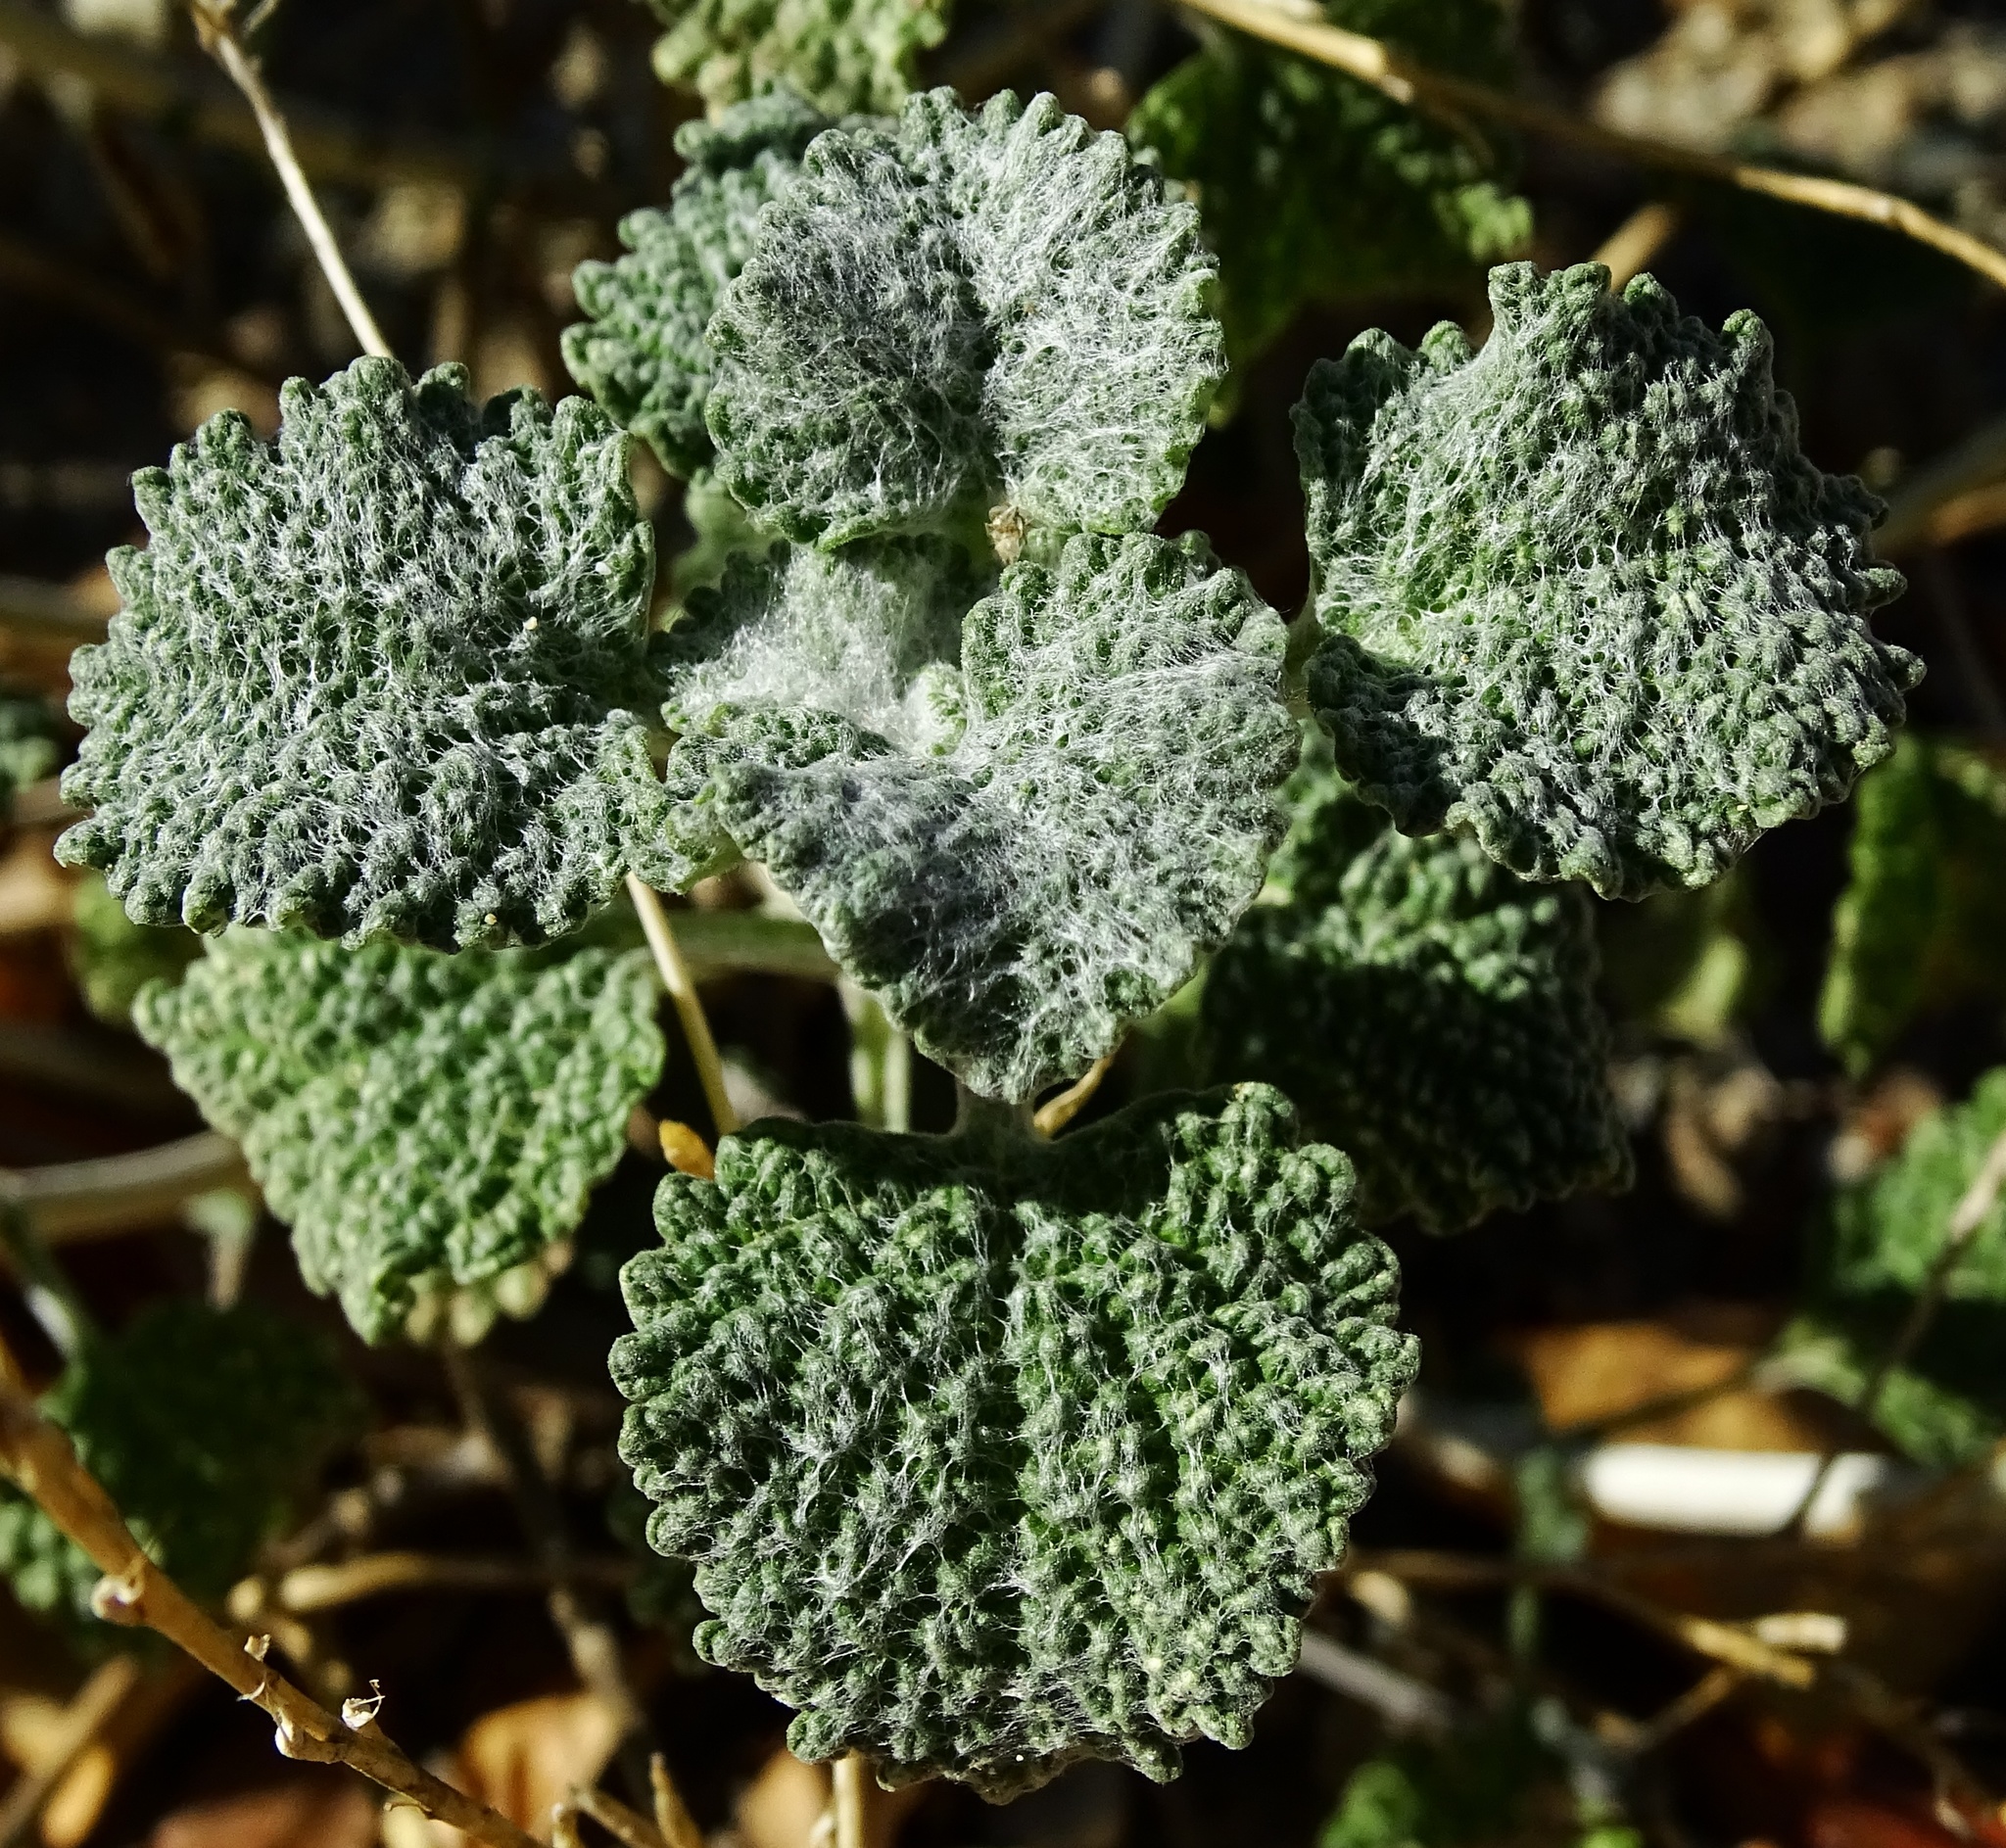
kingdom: Plantae
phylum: Tracheophyta
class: Magnoliopsida
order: Lamiales
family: Lamiaceae
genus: Marrubium
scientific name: Marrubium vulgare
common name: Horehound
